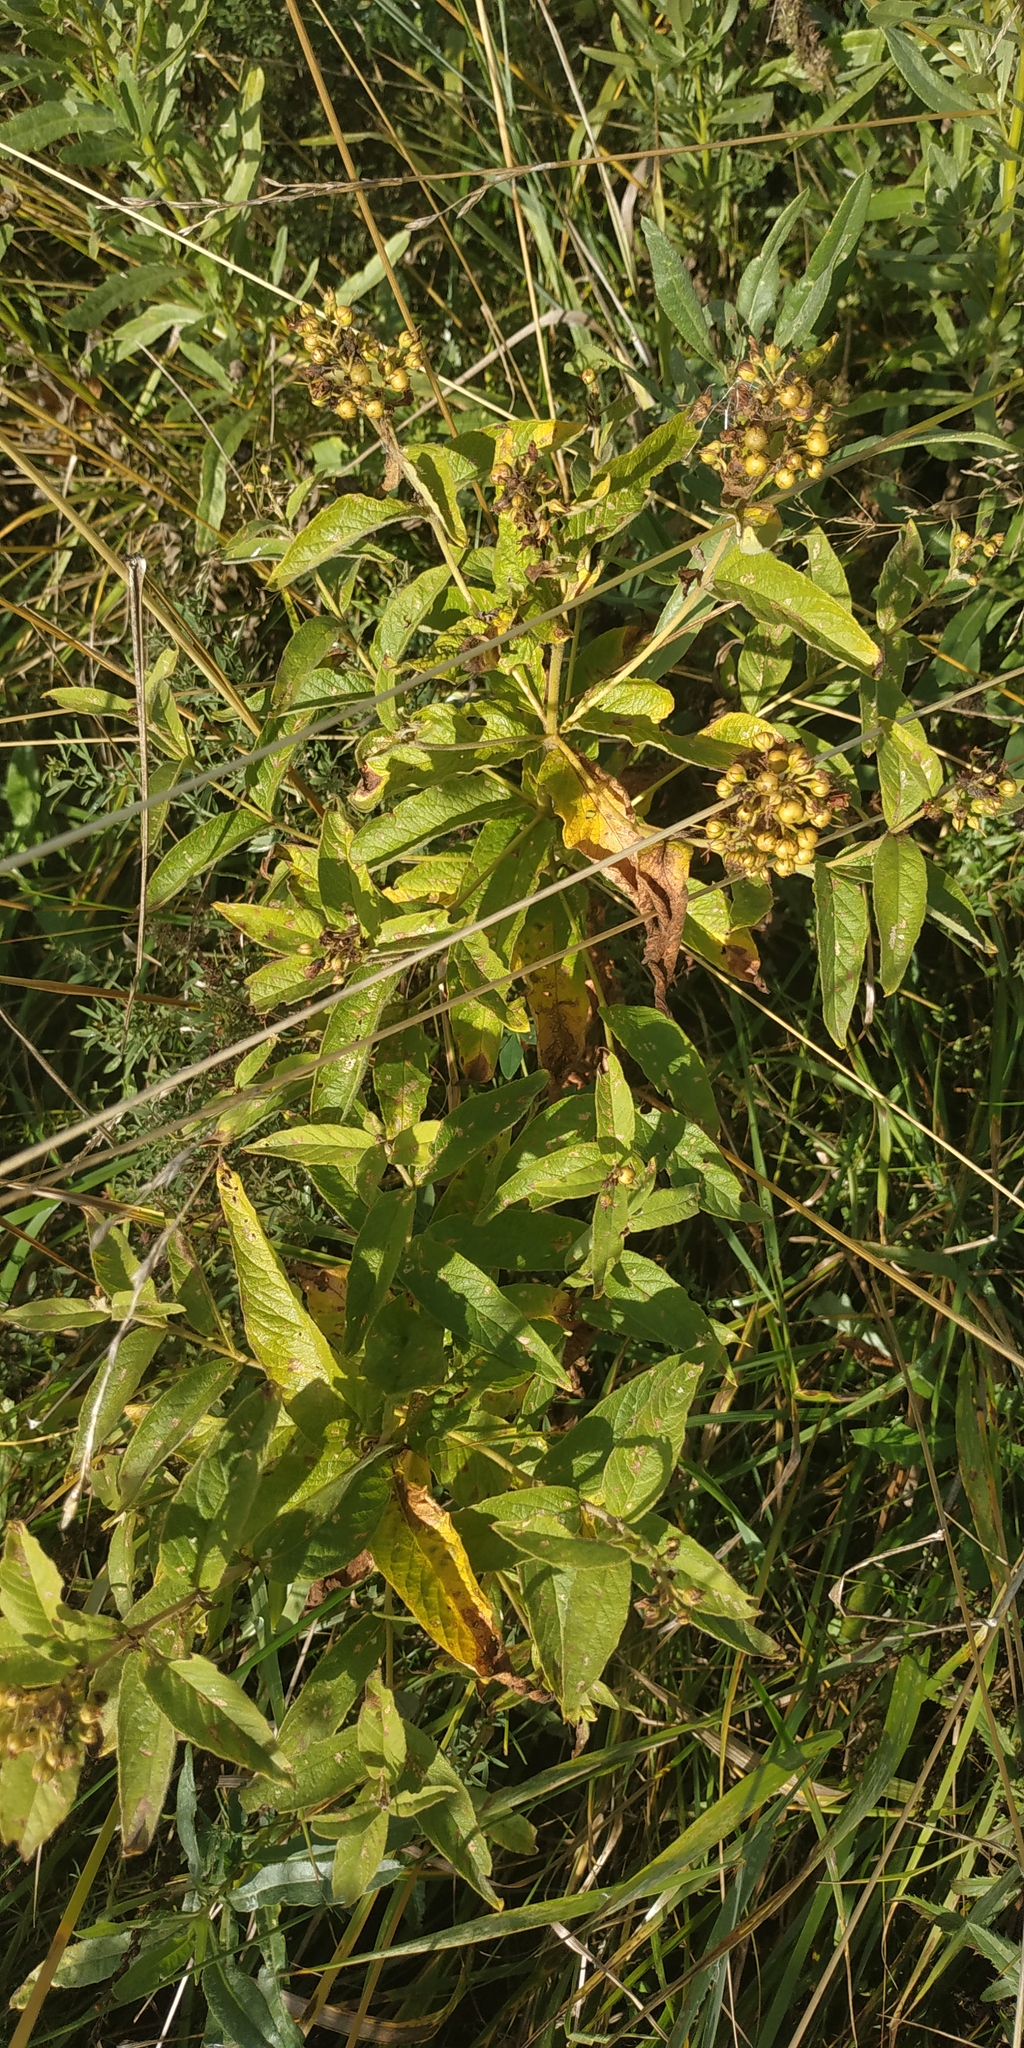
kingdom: Plantae
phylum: Tracheophyta
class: Magnoliopsida
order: Ericales
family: Primulaceae
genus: Lysimachia
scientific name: Lysimachia vulgaris
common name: Yellow loosestrife
